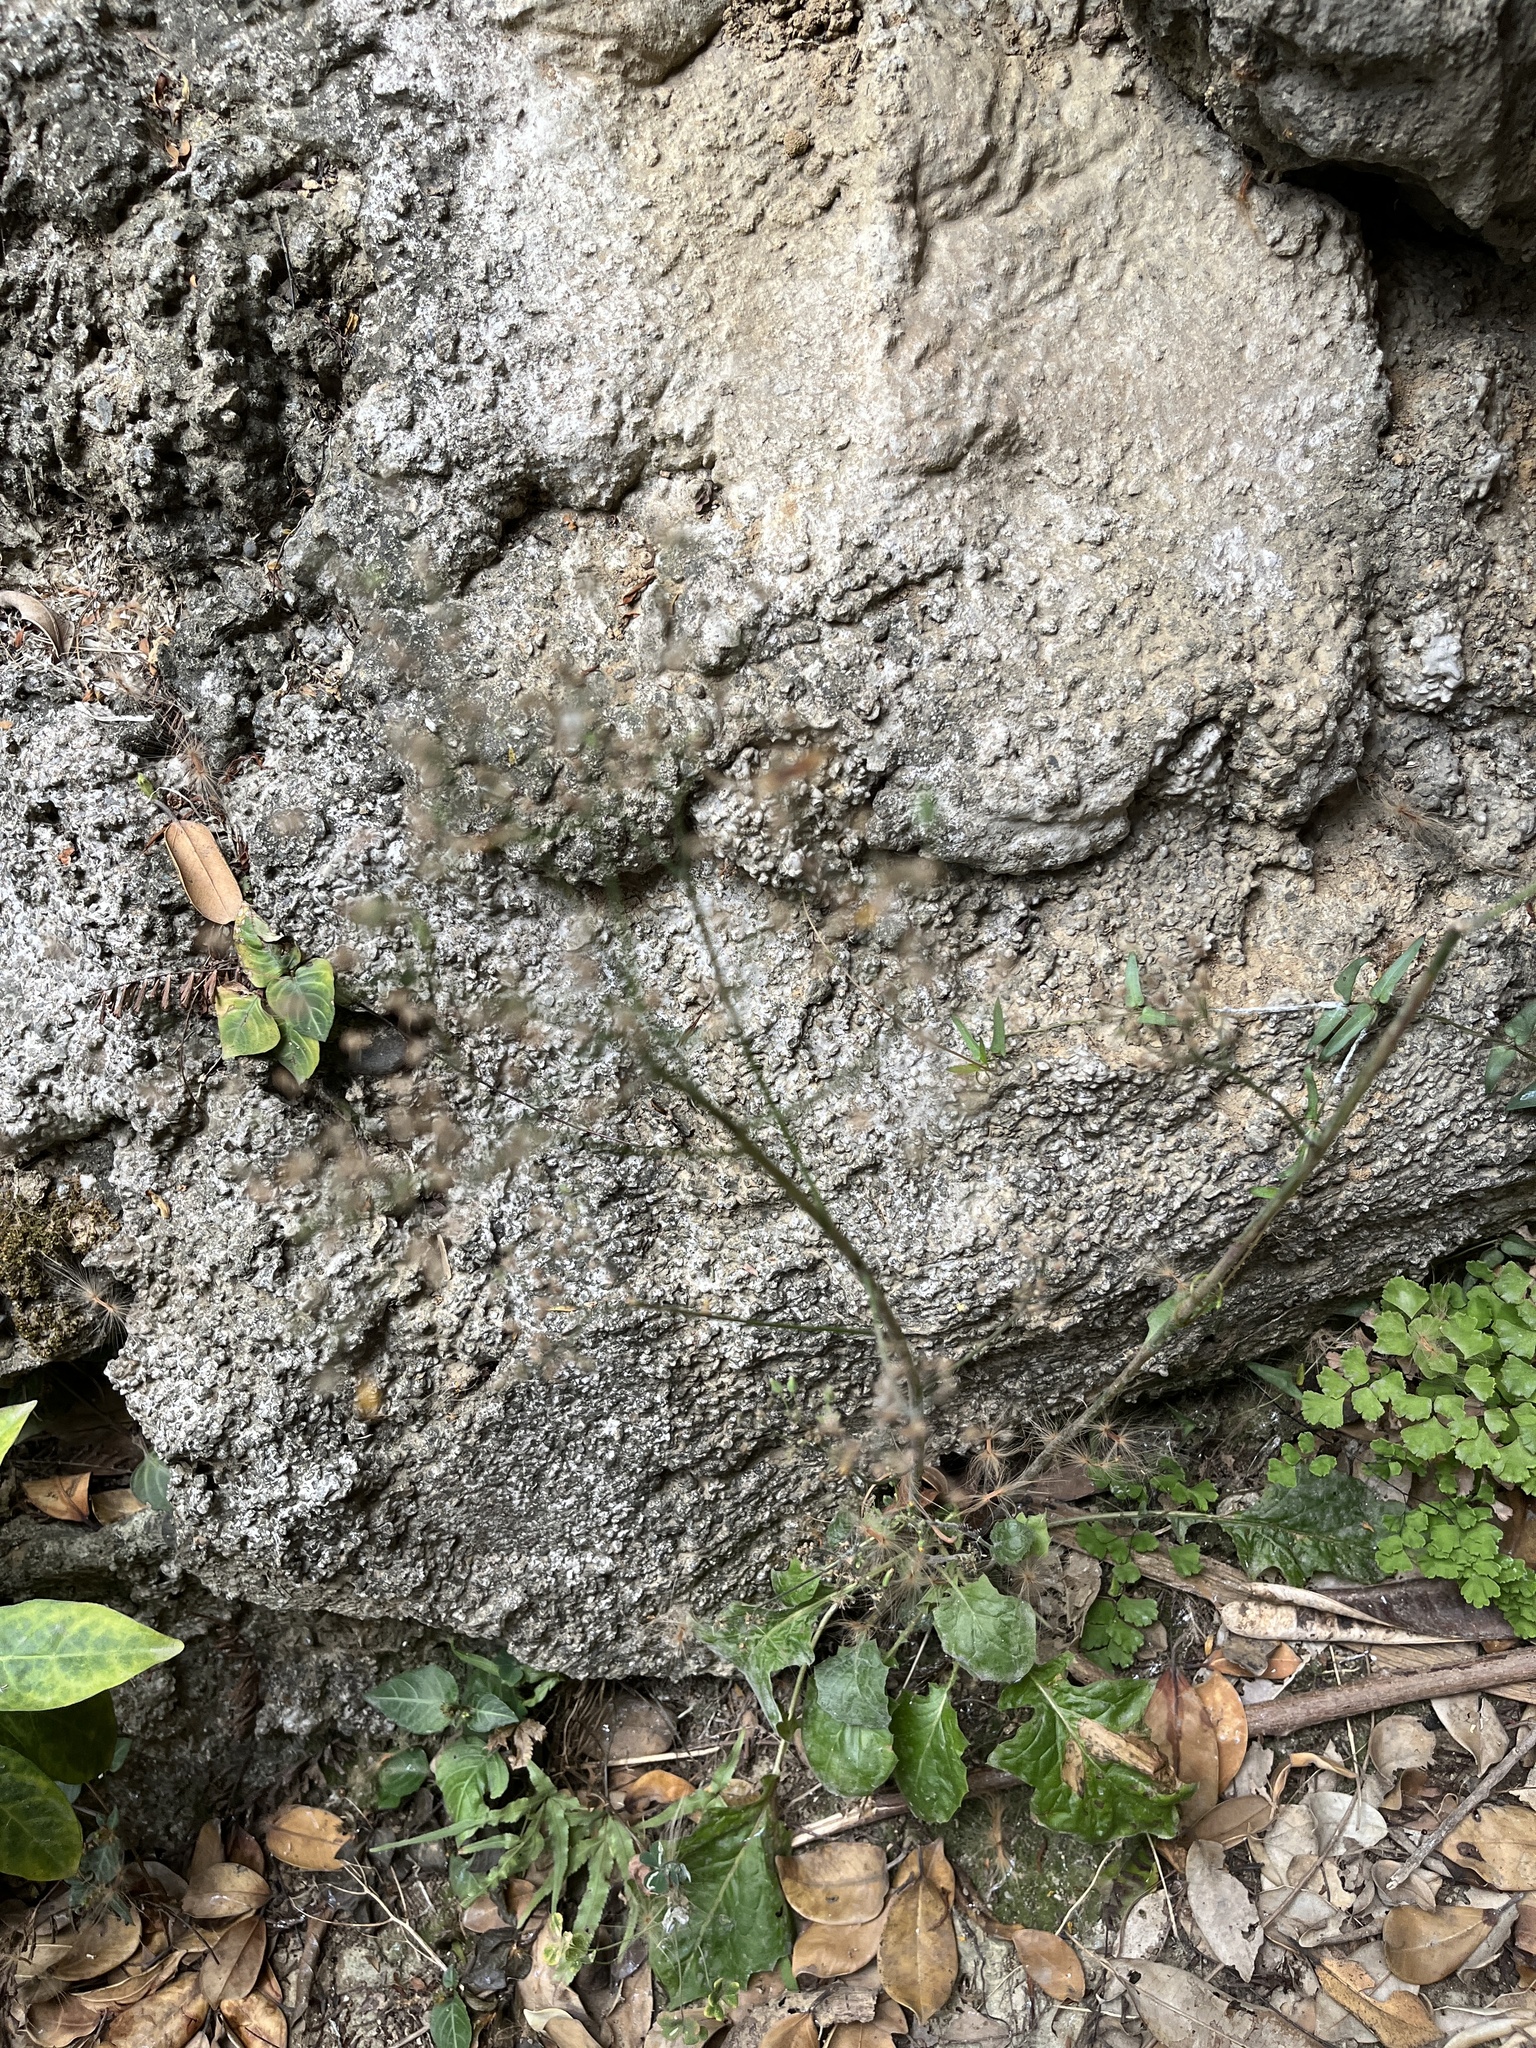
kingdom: Plantae
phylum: Tracheophyta
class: Magnoliopsida
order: Asterales
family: Asteraceae
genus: Cyanthillium
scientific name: Cyanthillium cinereum
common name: Little ironweed
